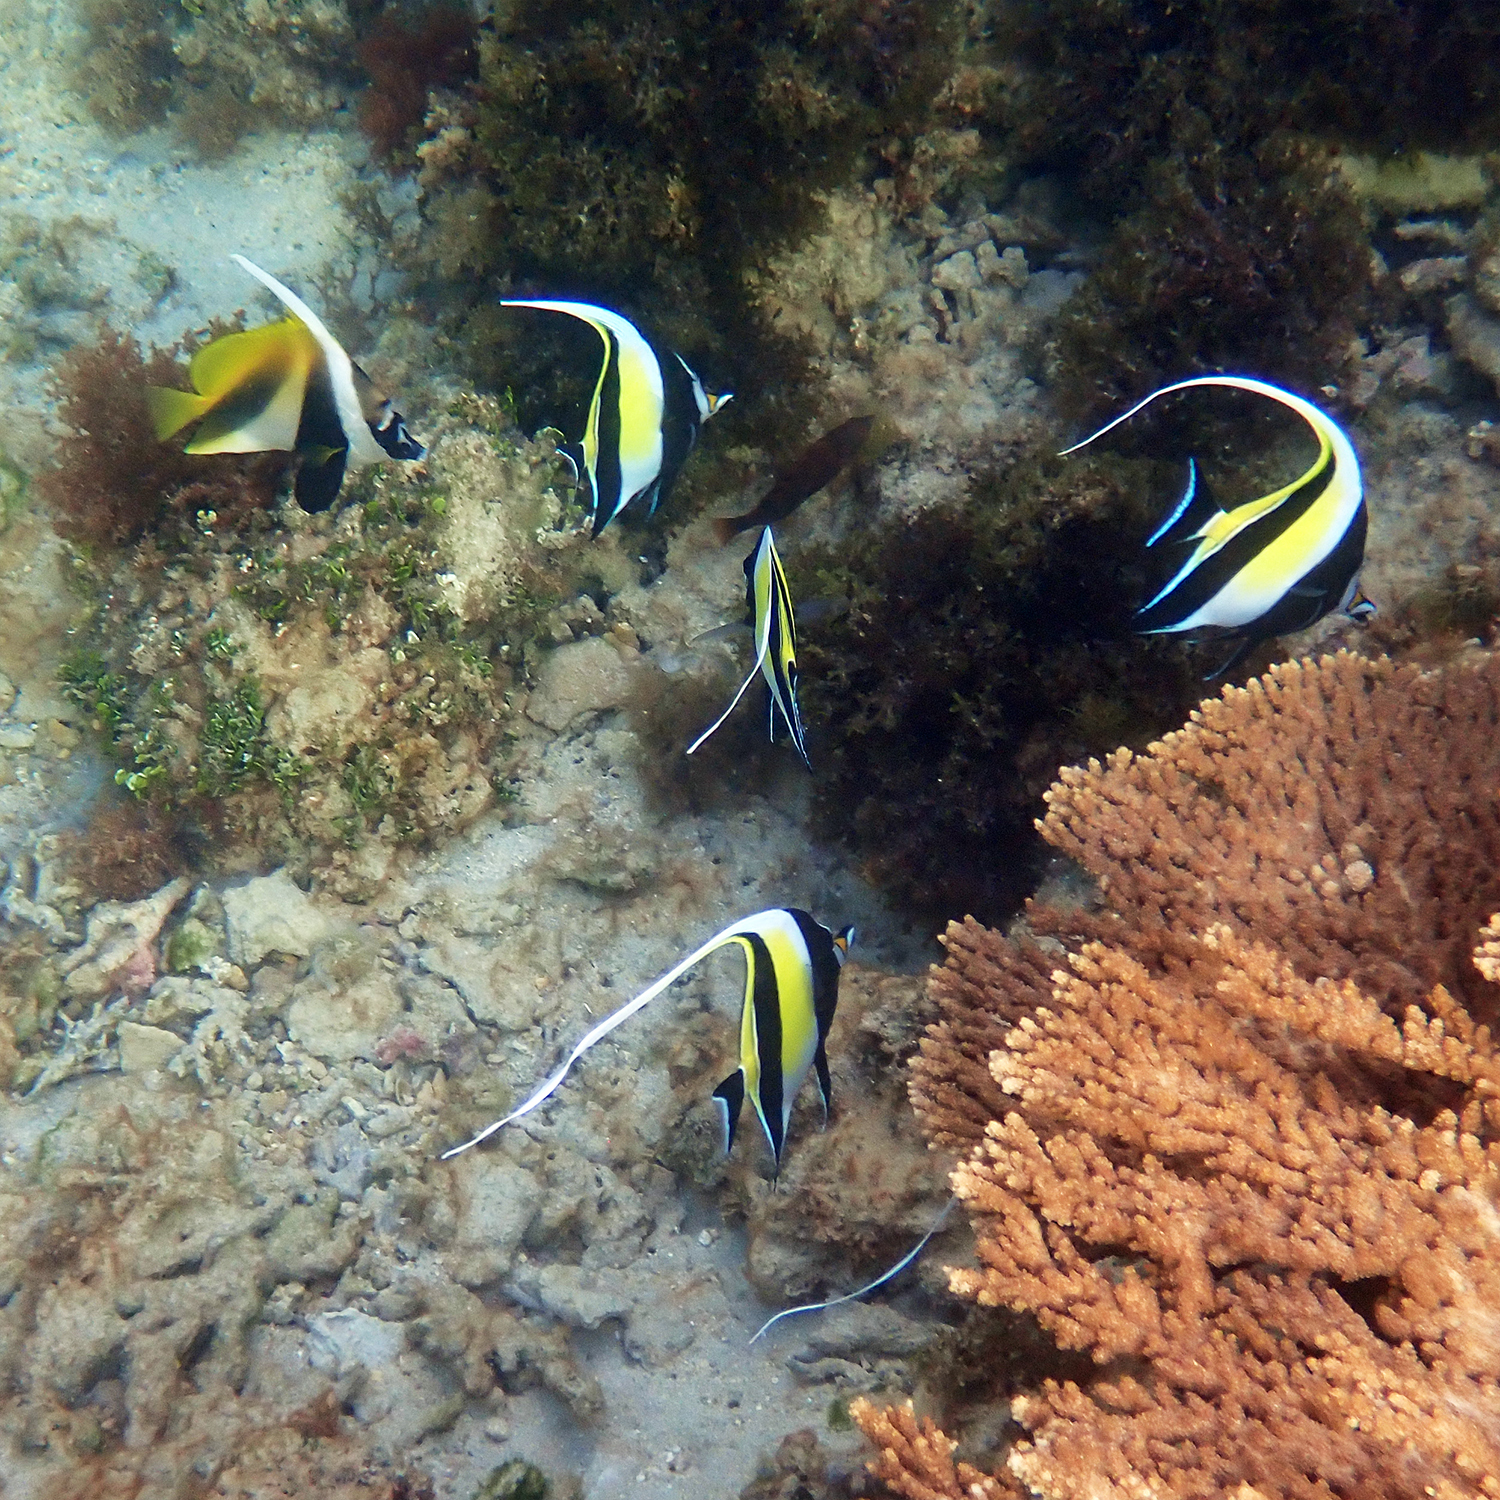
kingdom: Animalia
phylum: Chordata
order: Perciformes
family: Zanclidae
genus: Zanclus
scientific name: Zanclus cornutus
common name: Moorish idol
